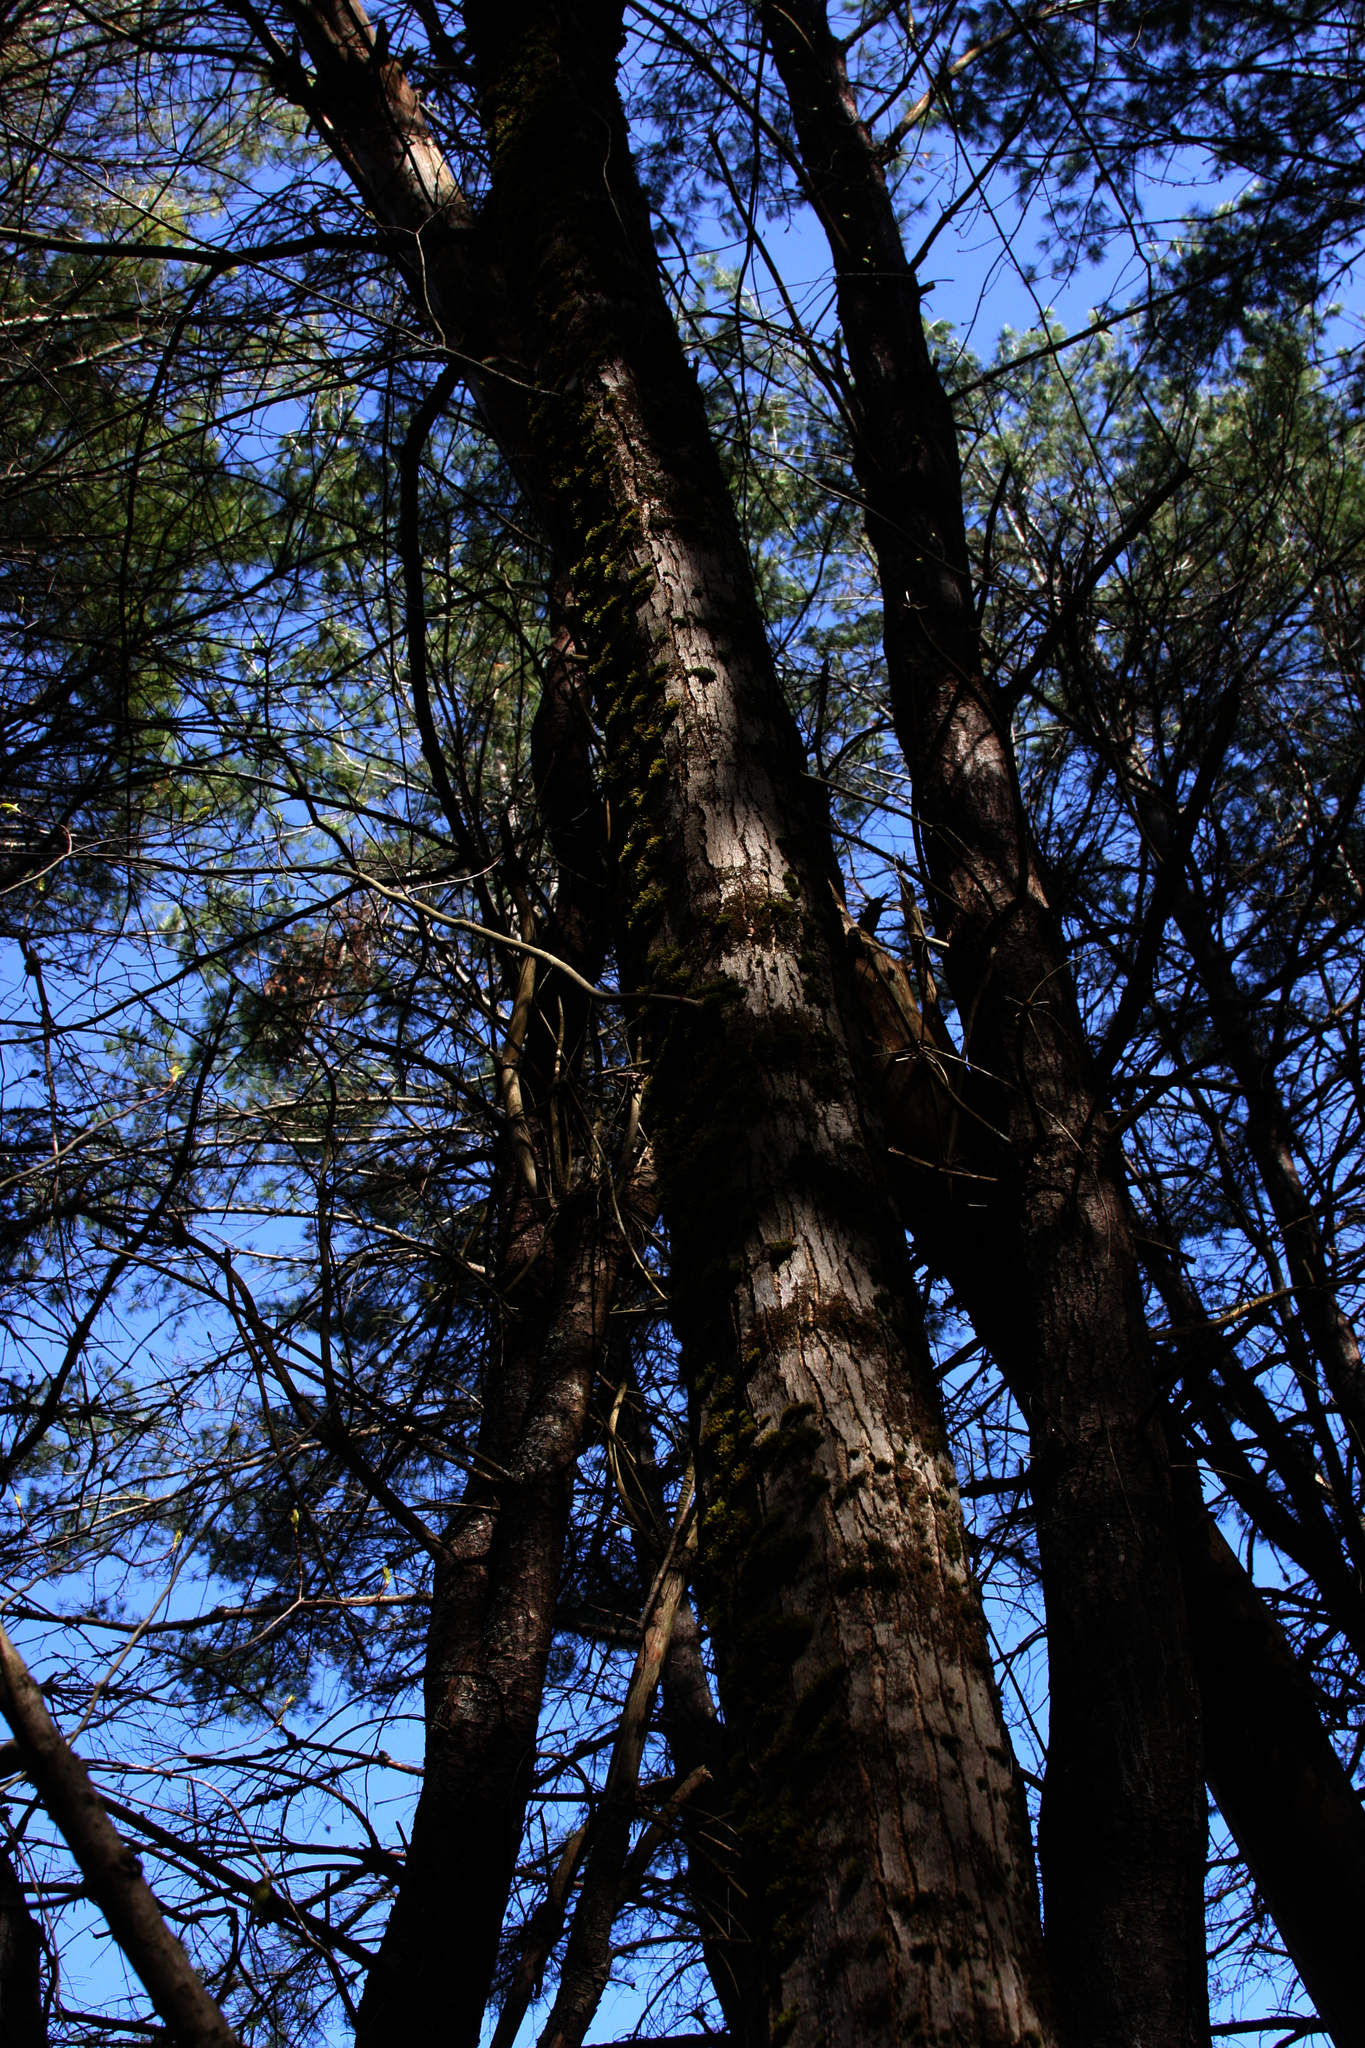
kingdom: Plantae
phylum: Bryophyta
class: Bryopsida
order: Orthotrichales
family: Orthotrichaceae
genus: Ulota
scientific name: Ulota crispa
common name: Crisped pincushion moss
